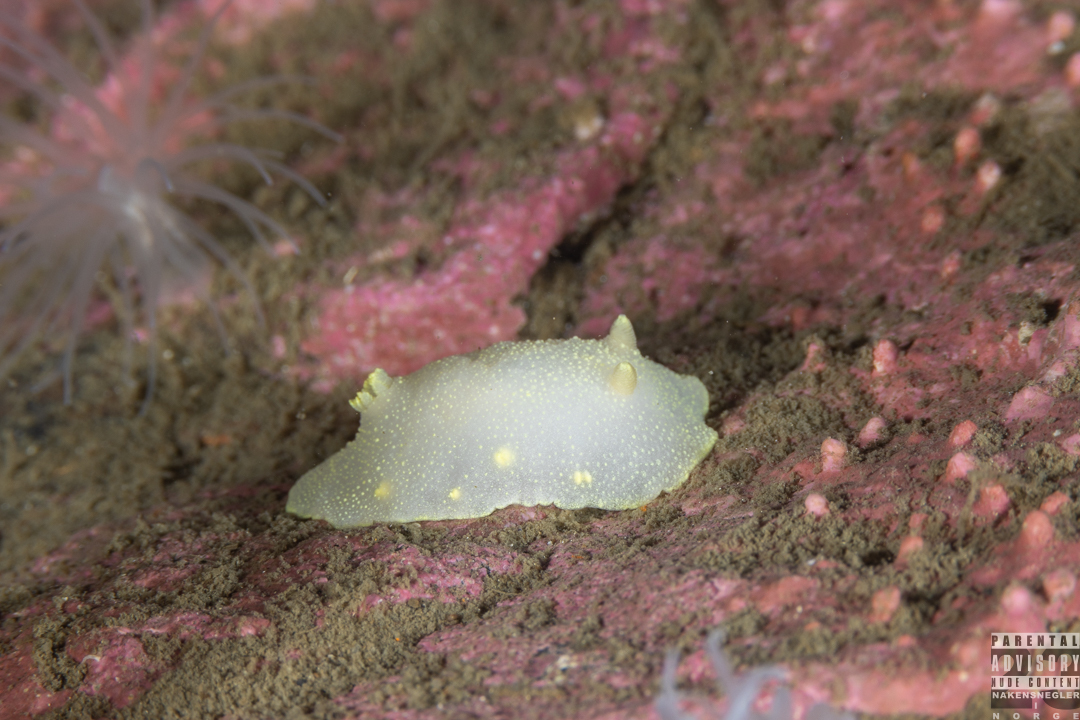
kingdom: Animalia
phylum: Mollusca
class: Gastropoda
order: Nudibranchia
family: Cadlinidae
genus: Cadlina
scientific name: Cadlina laevis
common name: White atlantic cadlina
